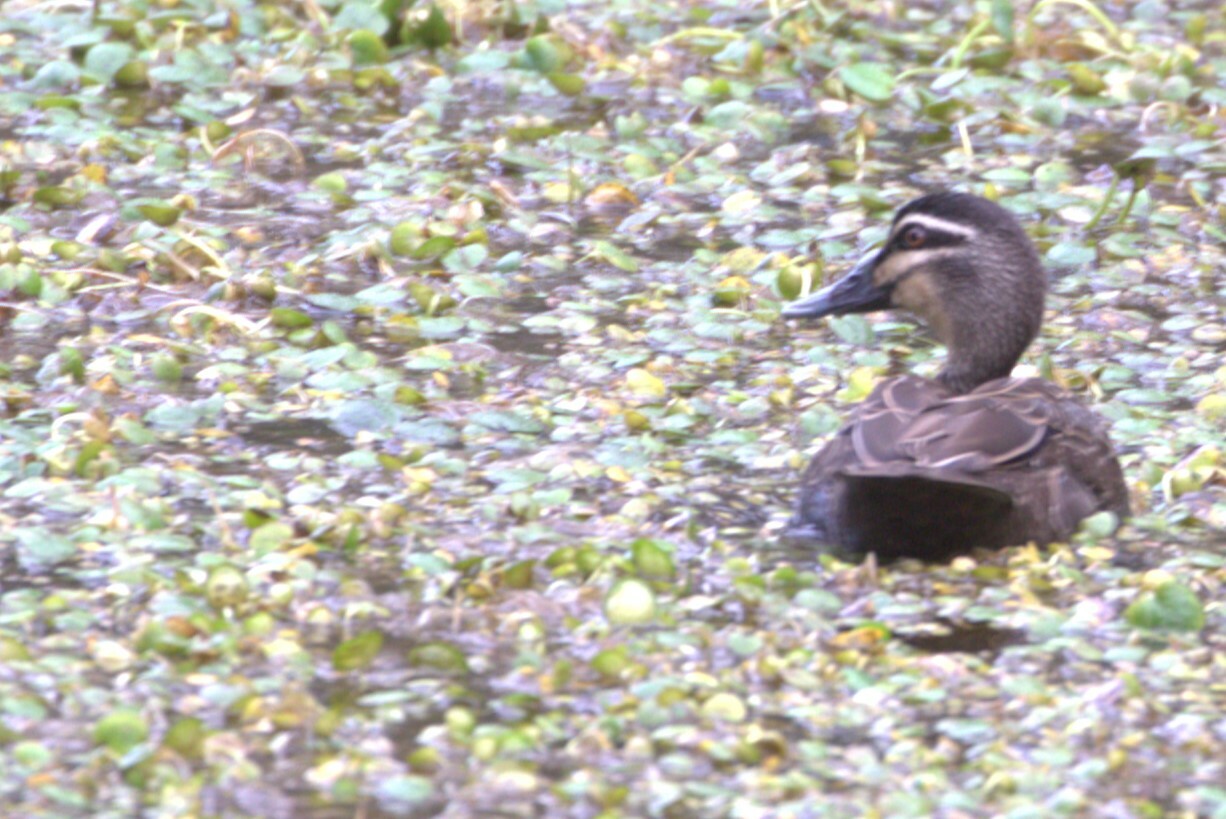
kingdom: Animalia
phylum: Chordata
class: Aves
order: Anseriformes
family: Anatidae
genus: Anas
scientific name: Anas superciliosa
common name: Pacific black duck
